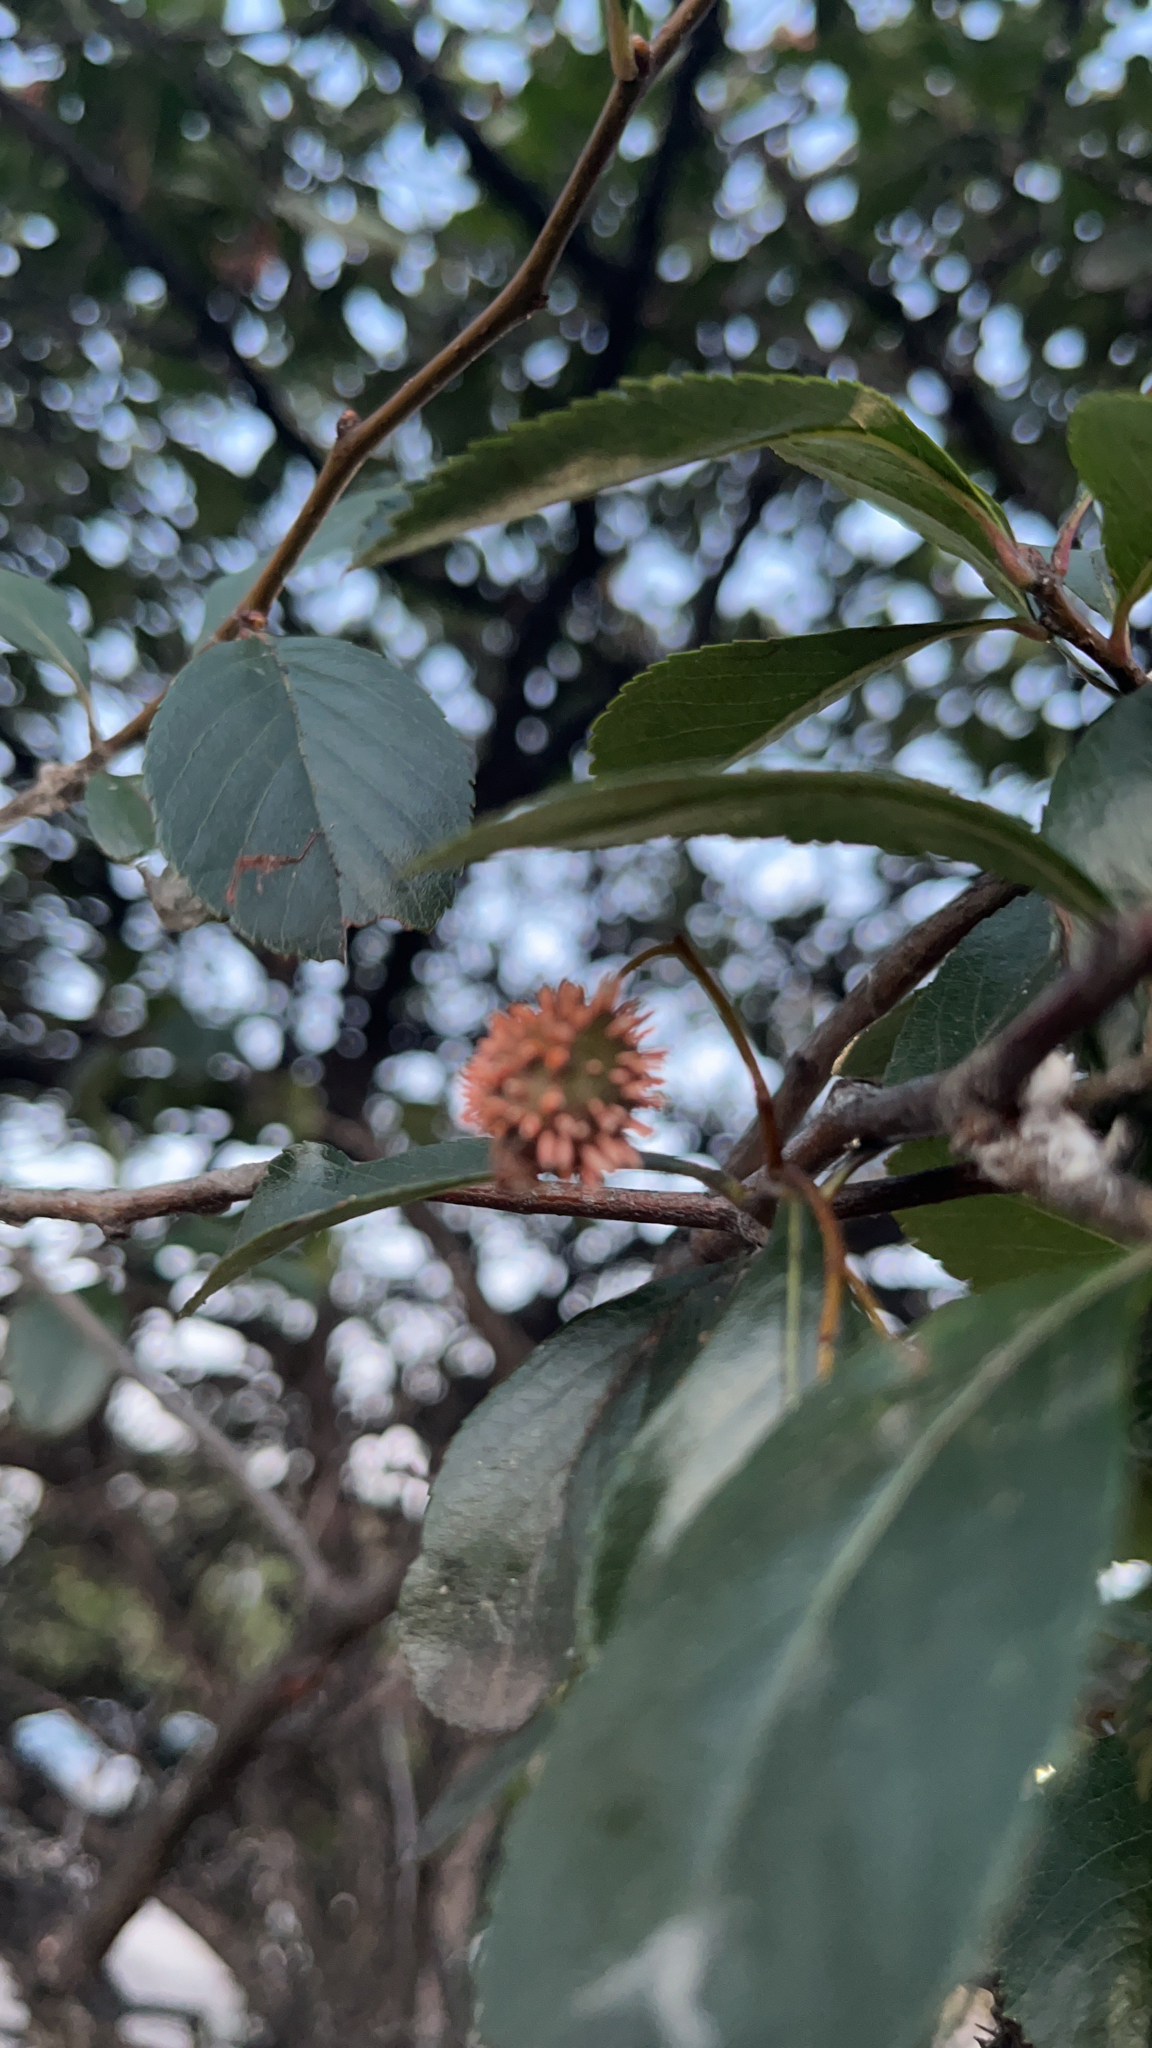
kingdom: Fungi
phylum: Basidiomycota
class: Pucciniomycetes
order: Pucciniales
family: Gymnosporangiaceae
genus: Gymnosporangium
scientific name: Gymnosporangium clavipes
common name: Quince rust
